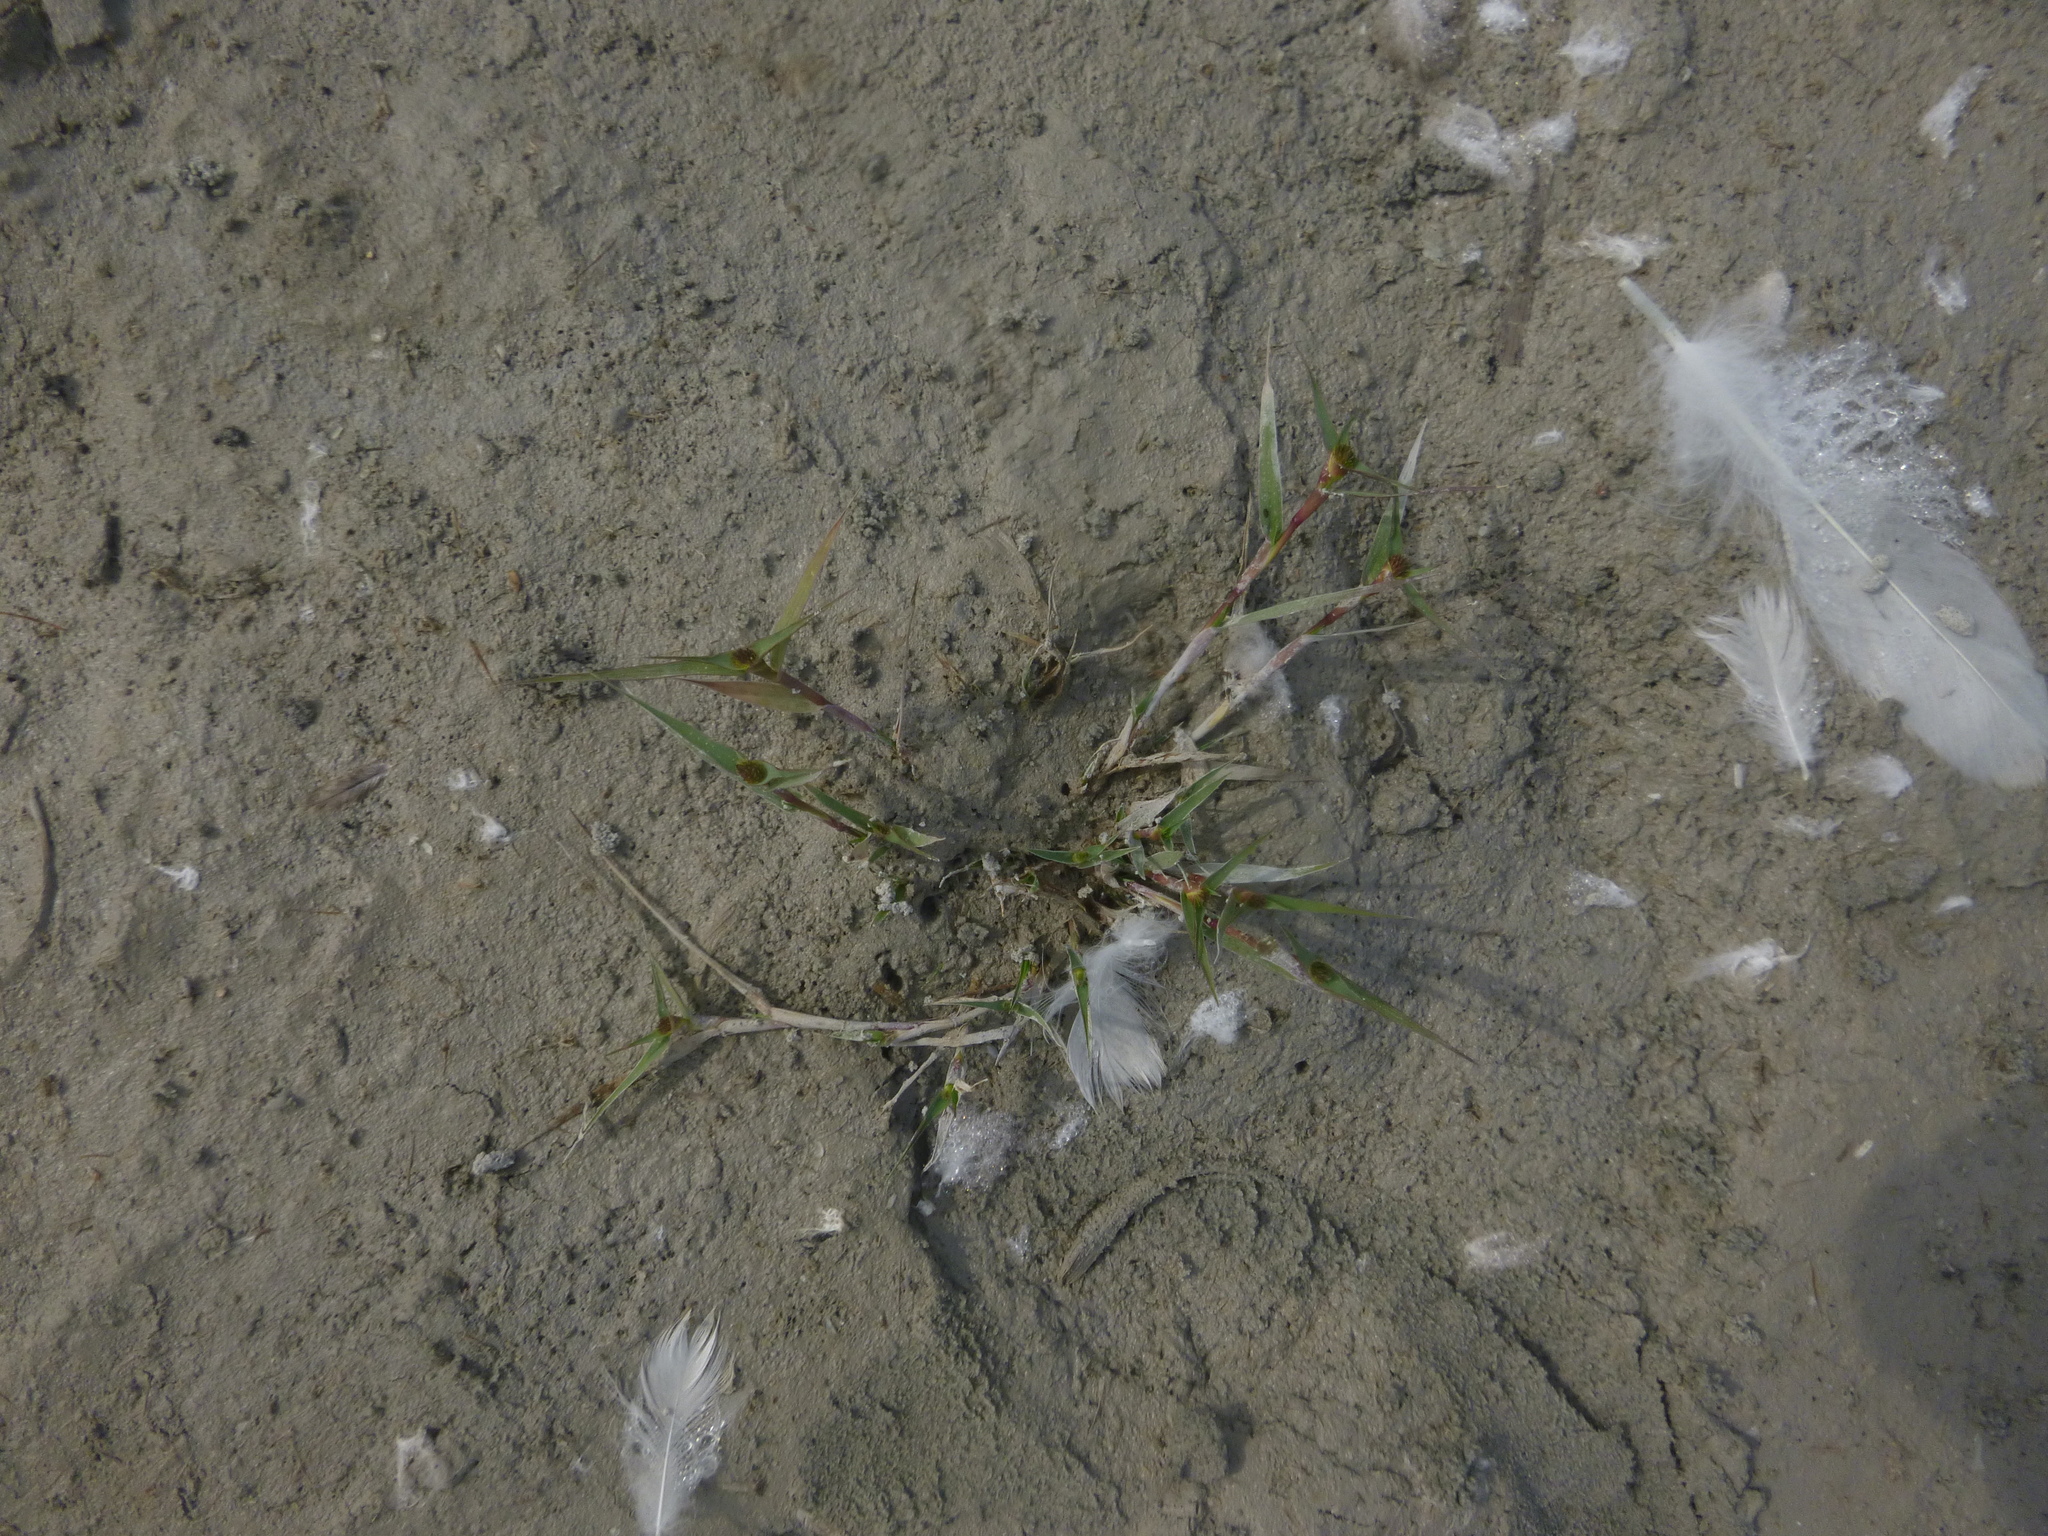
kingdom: Plantae
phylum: Tracheophyta
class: Liliopsida
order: Poales
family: Poaceae
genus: Sporobolus
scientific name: Sporobolus aculeatus
